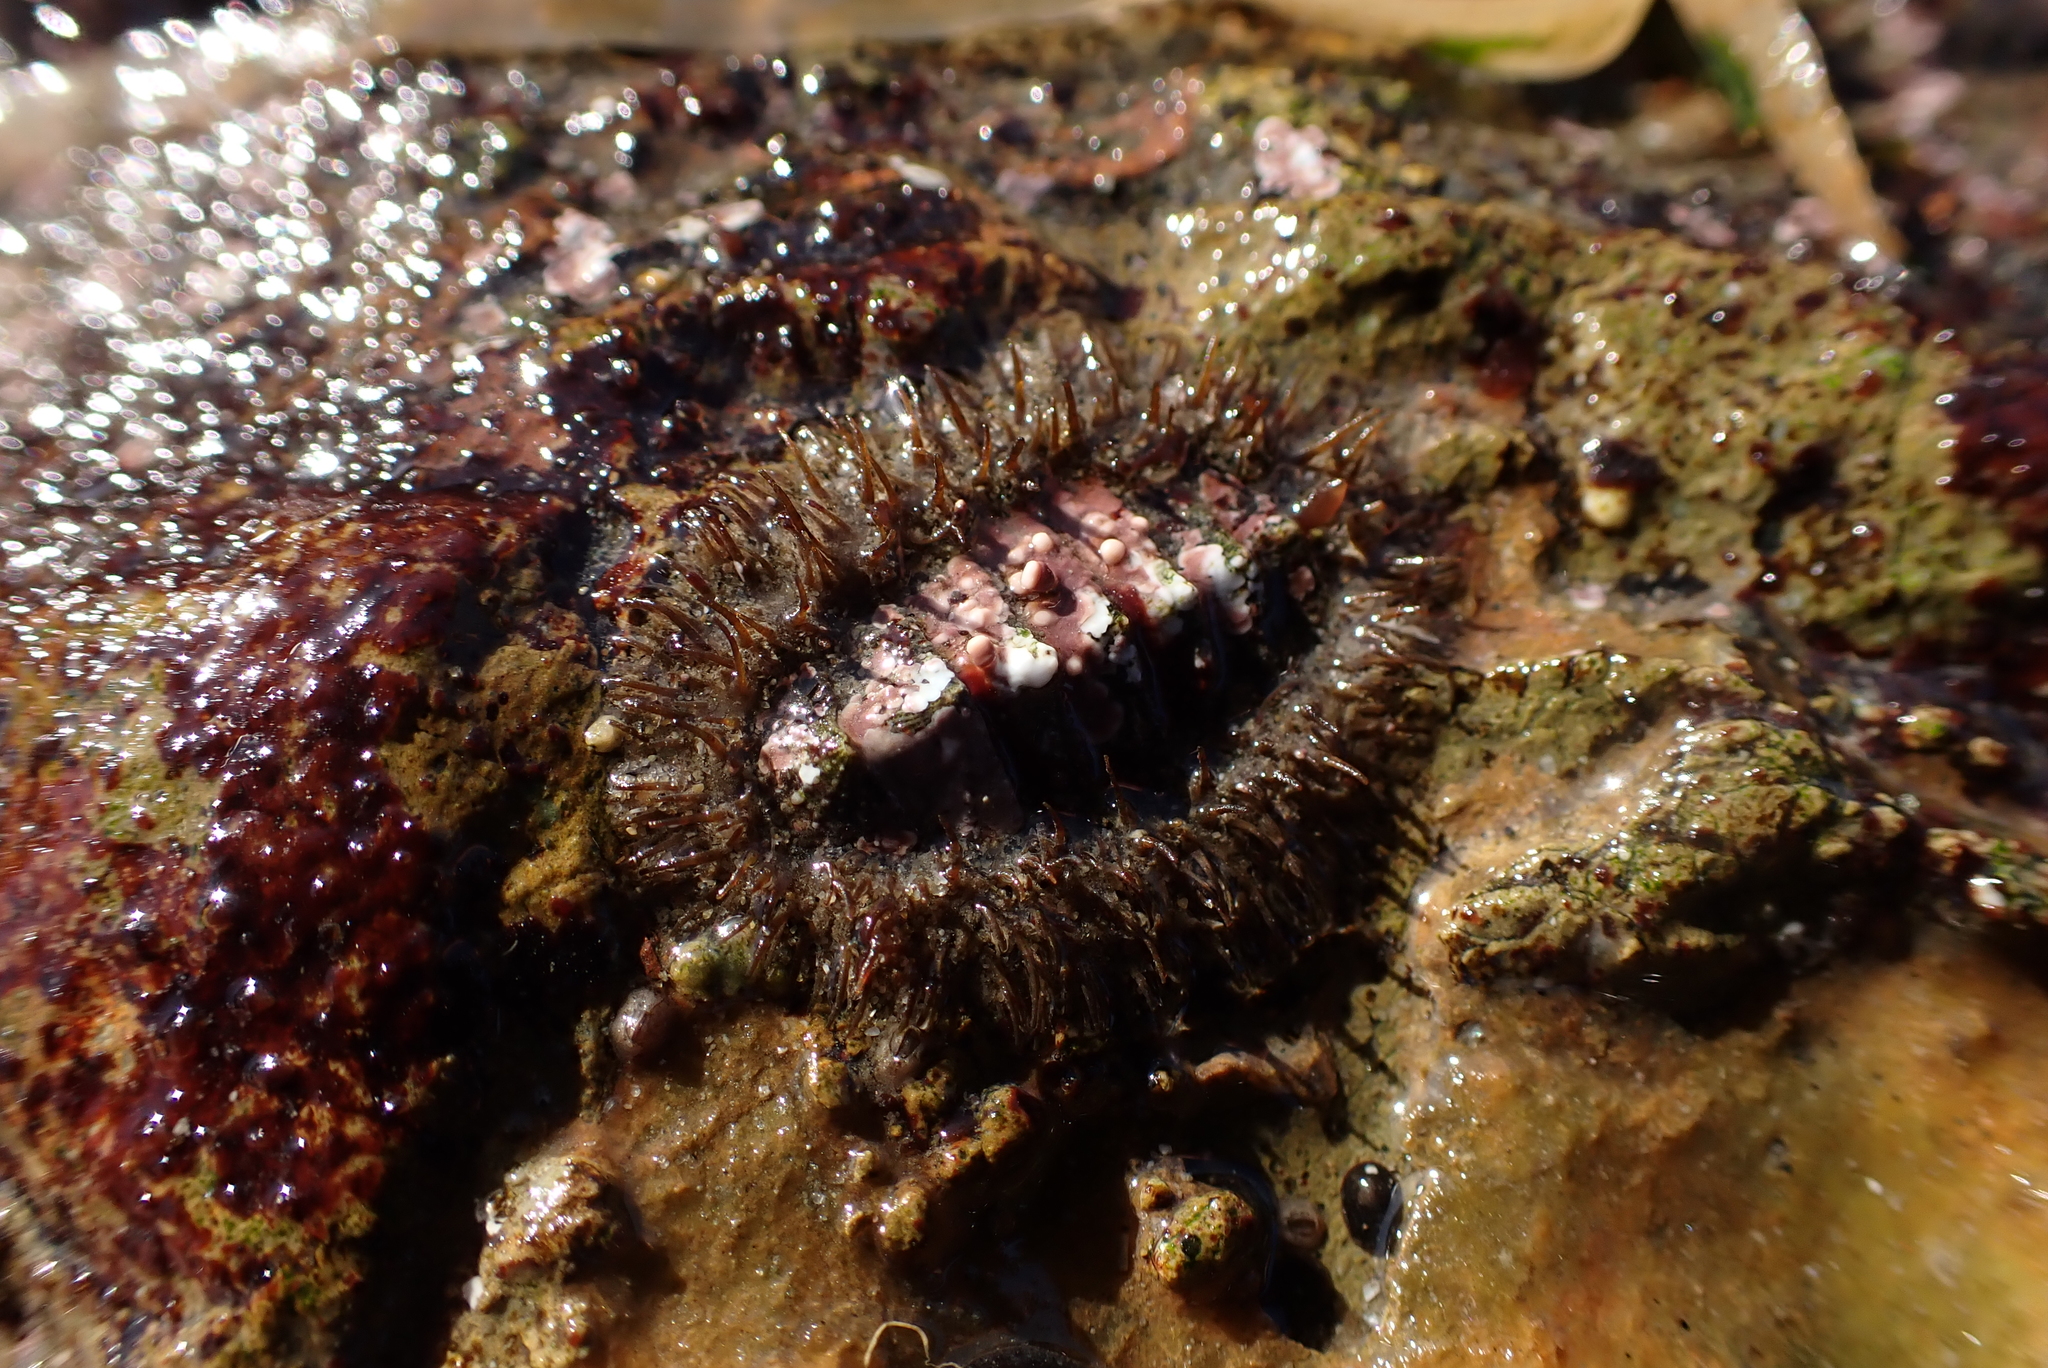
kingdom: Animalia
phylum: Mollusca
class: Polyplacophora
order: Chitonida
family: Mopaliidae
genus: Mopalia
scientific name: Mopalia muscosa
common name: Mossy chiton
